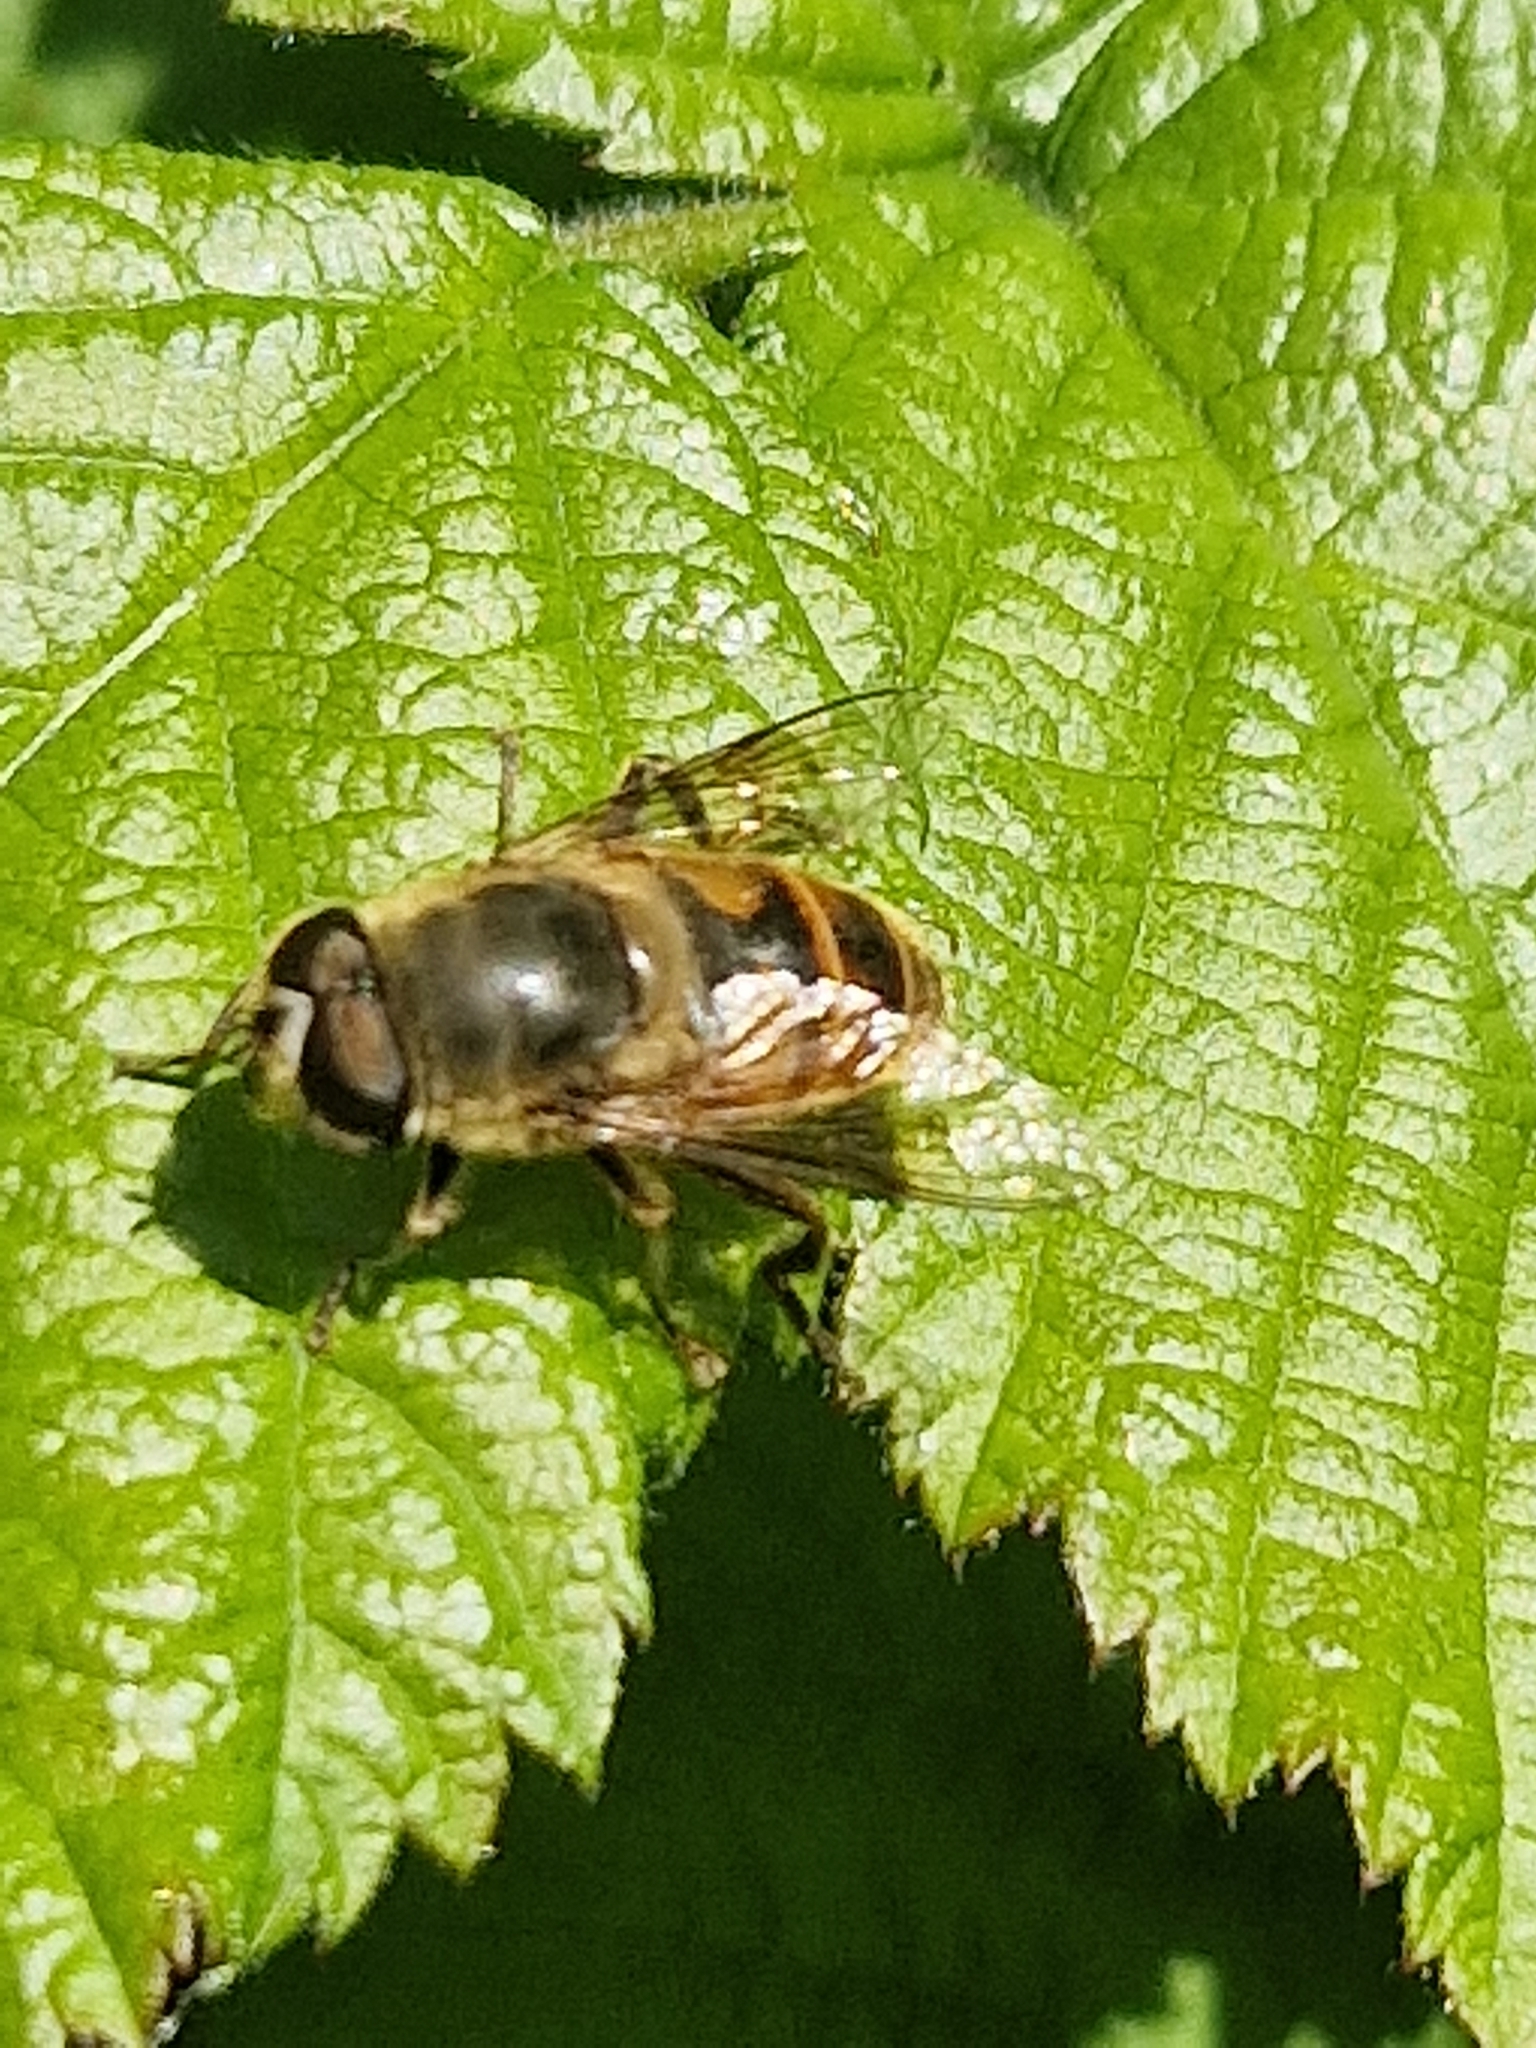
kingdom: Animalia
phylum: Arthropoda
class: Insecta
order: Diptera
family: Syrphidae
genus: Eristalis
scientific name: Eristalis tenax
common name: Drone fly
